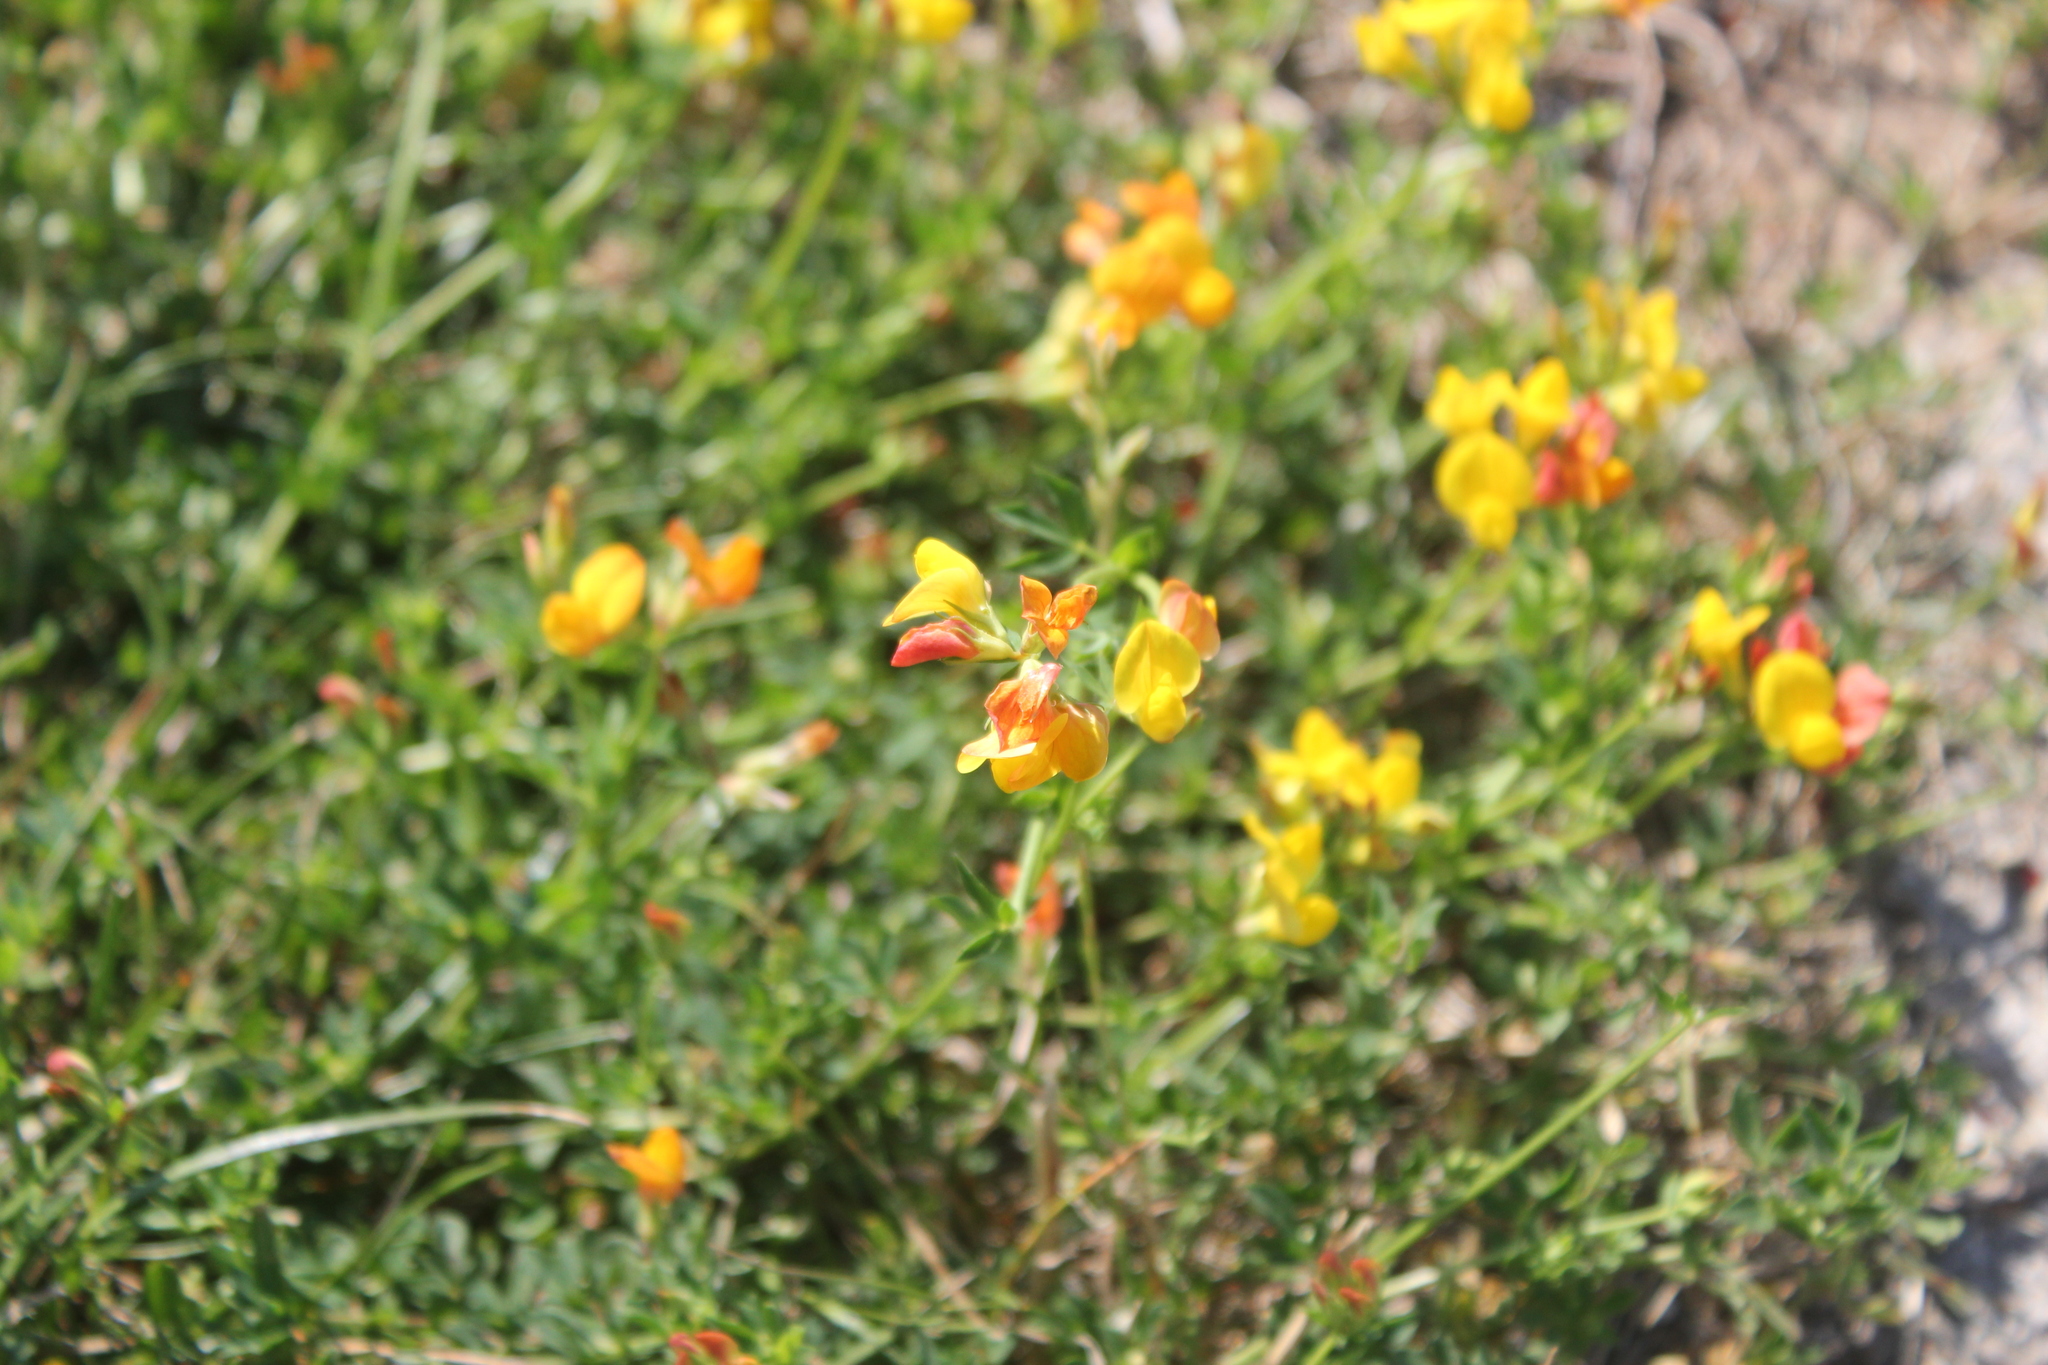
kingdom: Plantae
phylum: Tracheophyta
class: Magnoliopsida
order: Fabales
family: Fabaceae
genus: Lotus
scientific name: Lotus corniculatus
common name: Common bird's-foot-trefoil
